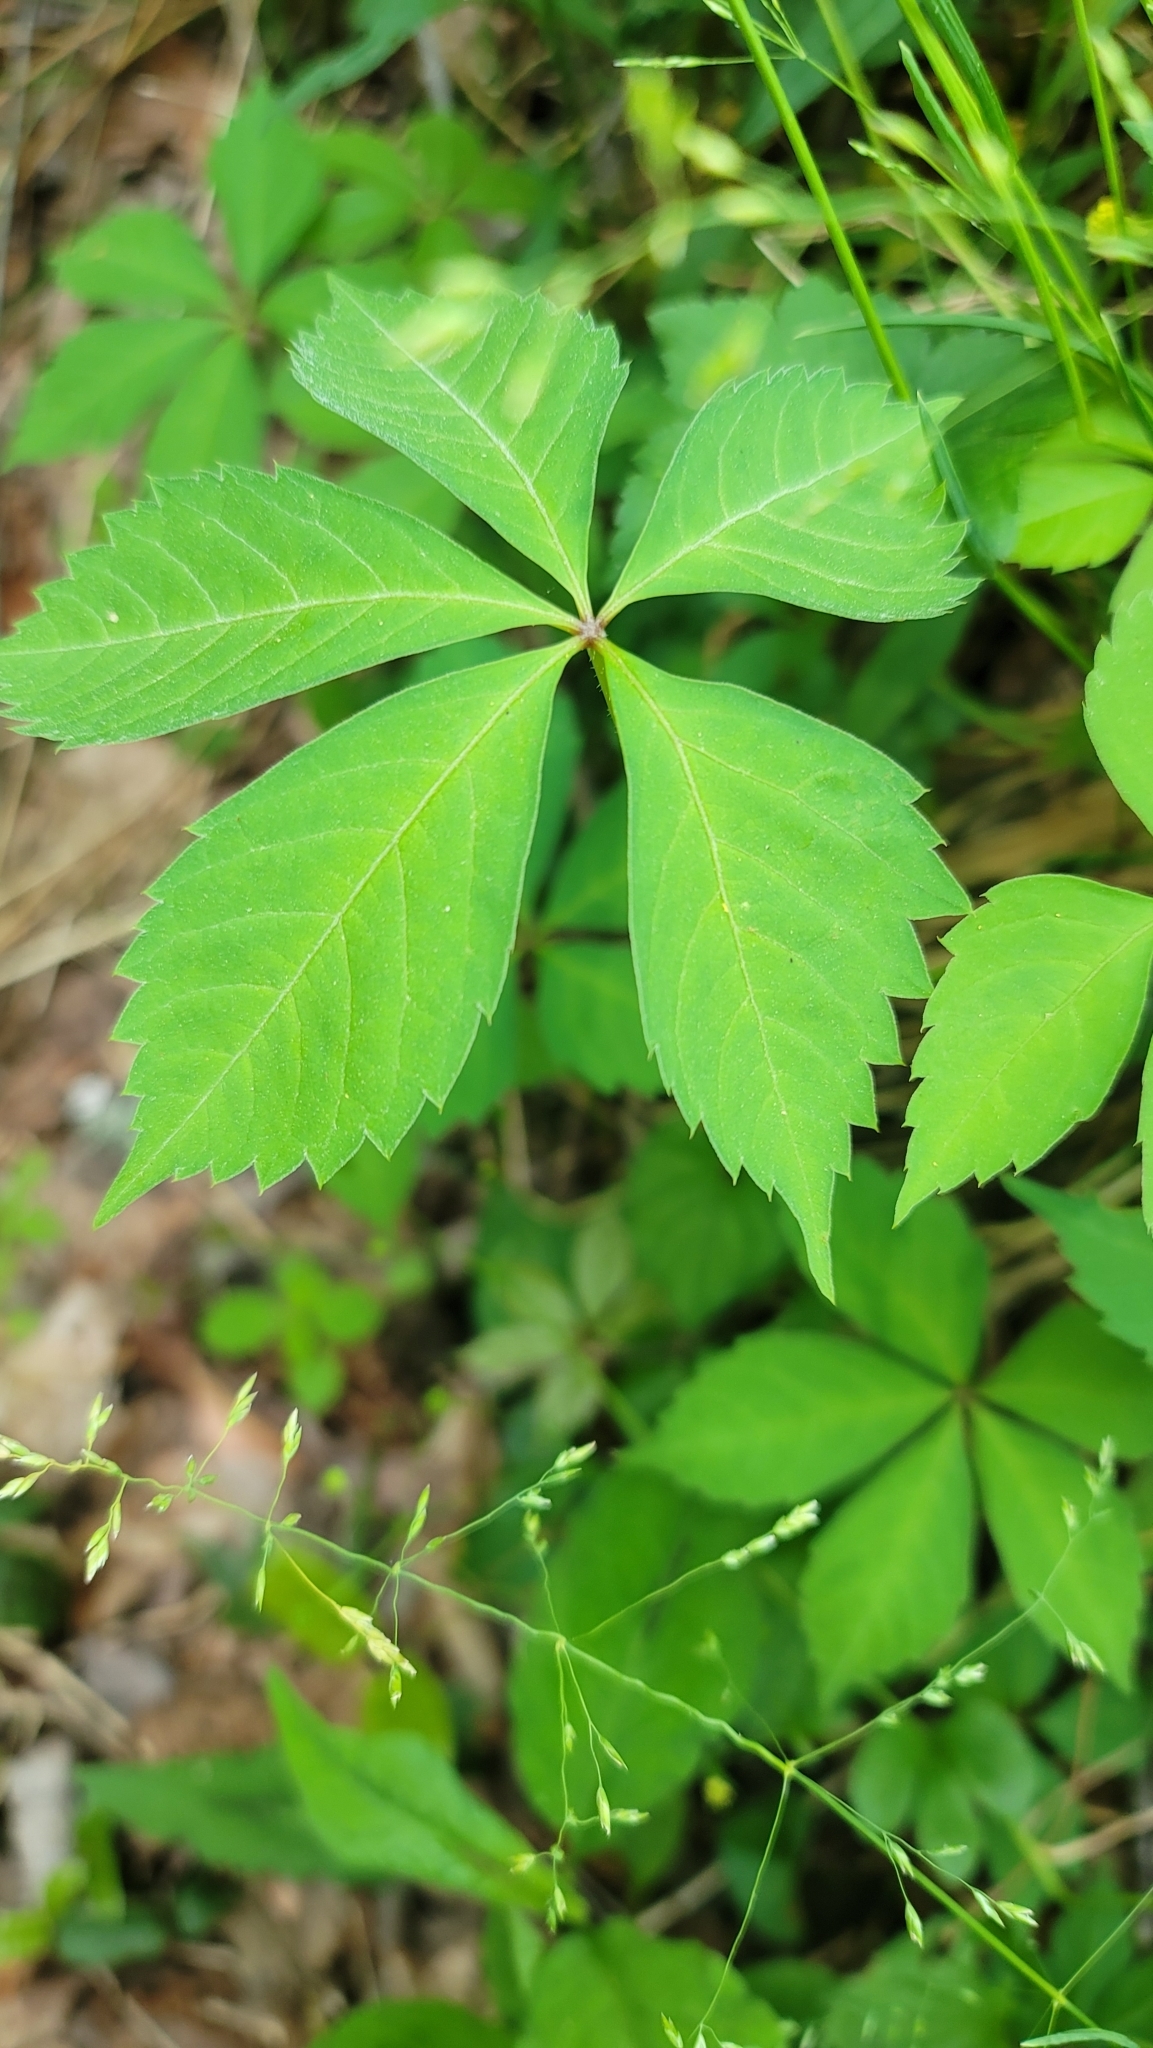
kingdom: Plantae
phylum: Tracheophyta
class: Magnoliopsida
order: Vitales
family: Vitaceae
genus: Parthenocissus
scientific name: Parthenocissus quinquefolia
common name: Virginia-creeper
